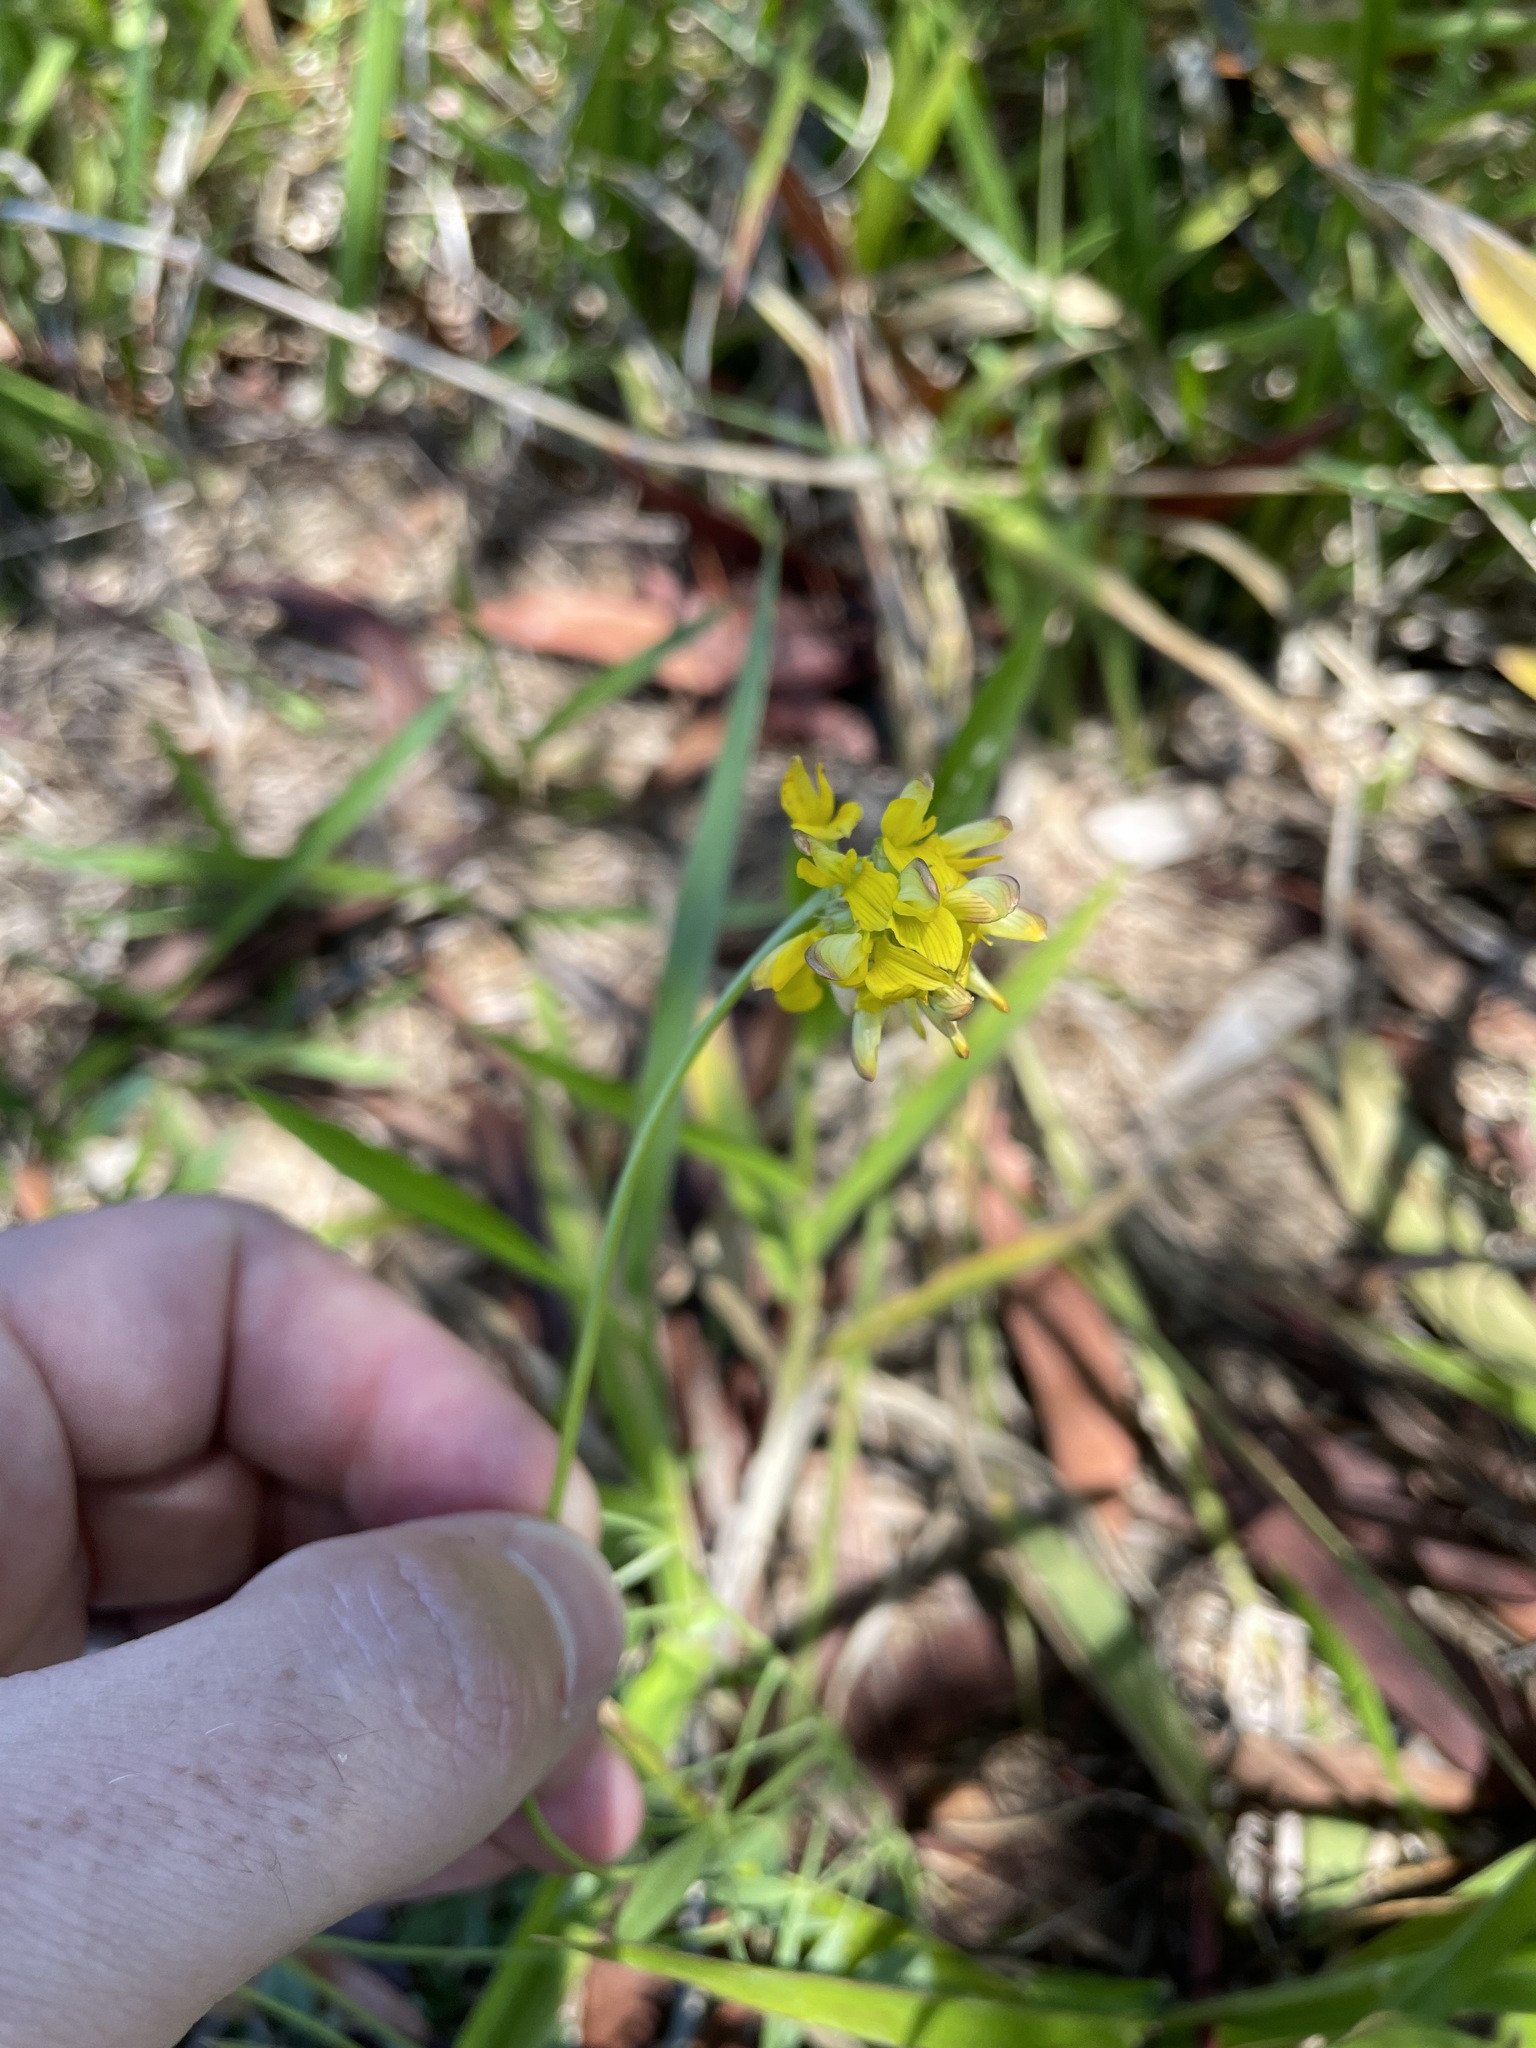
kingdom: Plantae
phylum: Tracheophyta
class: Magnoliopsida
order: Fabales
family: Fabaceae
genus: Listia
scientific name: Listia bainesii
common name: Lotononis
